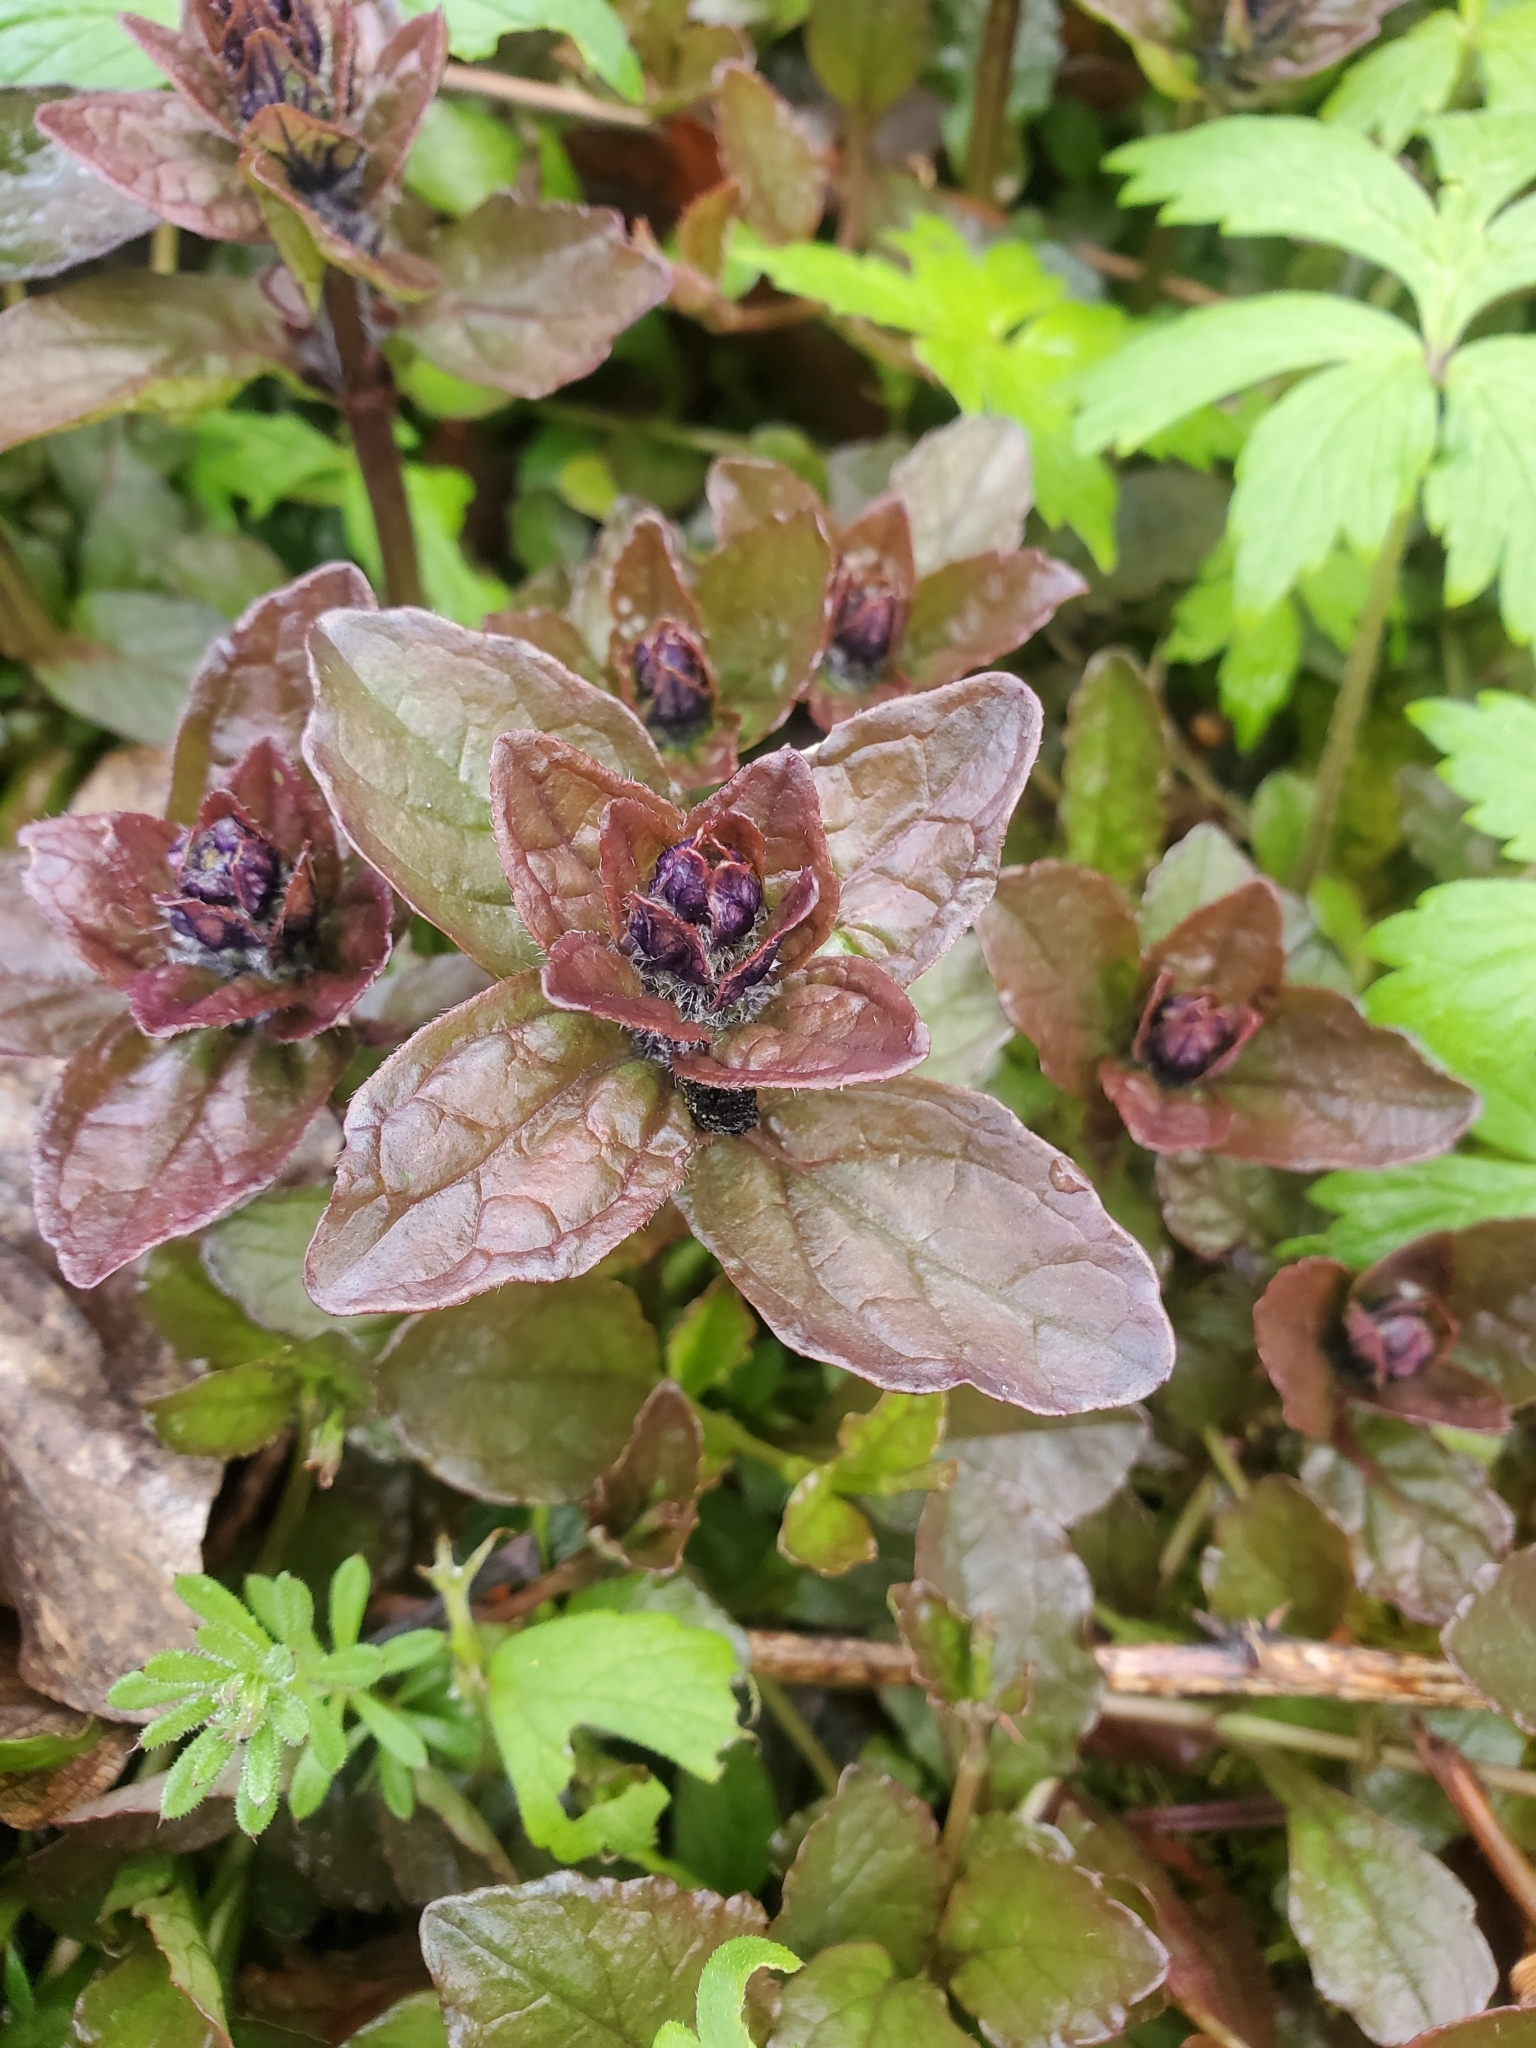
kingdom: Plantae
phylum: Tracheophyta
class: Magnoliopsida
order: Lamiales
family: Lamiaceae
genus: Ajuga
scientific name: Ajuga reptans
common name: Bugle
